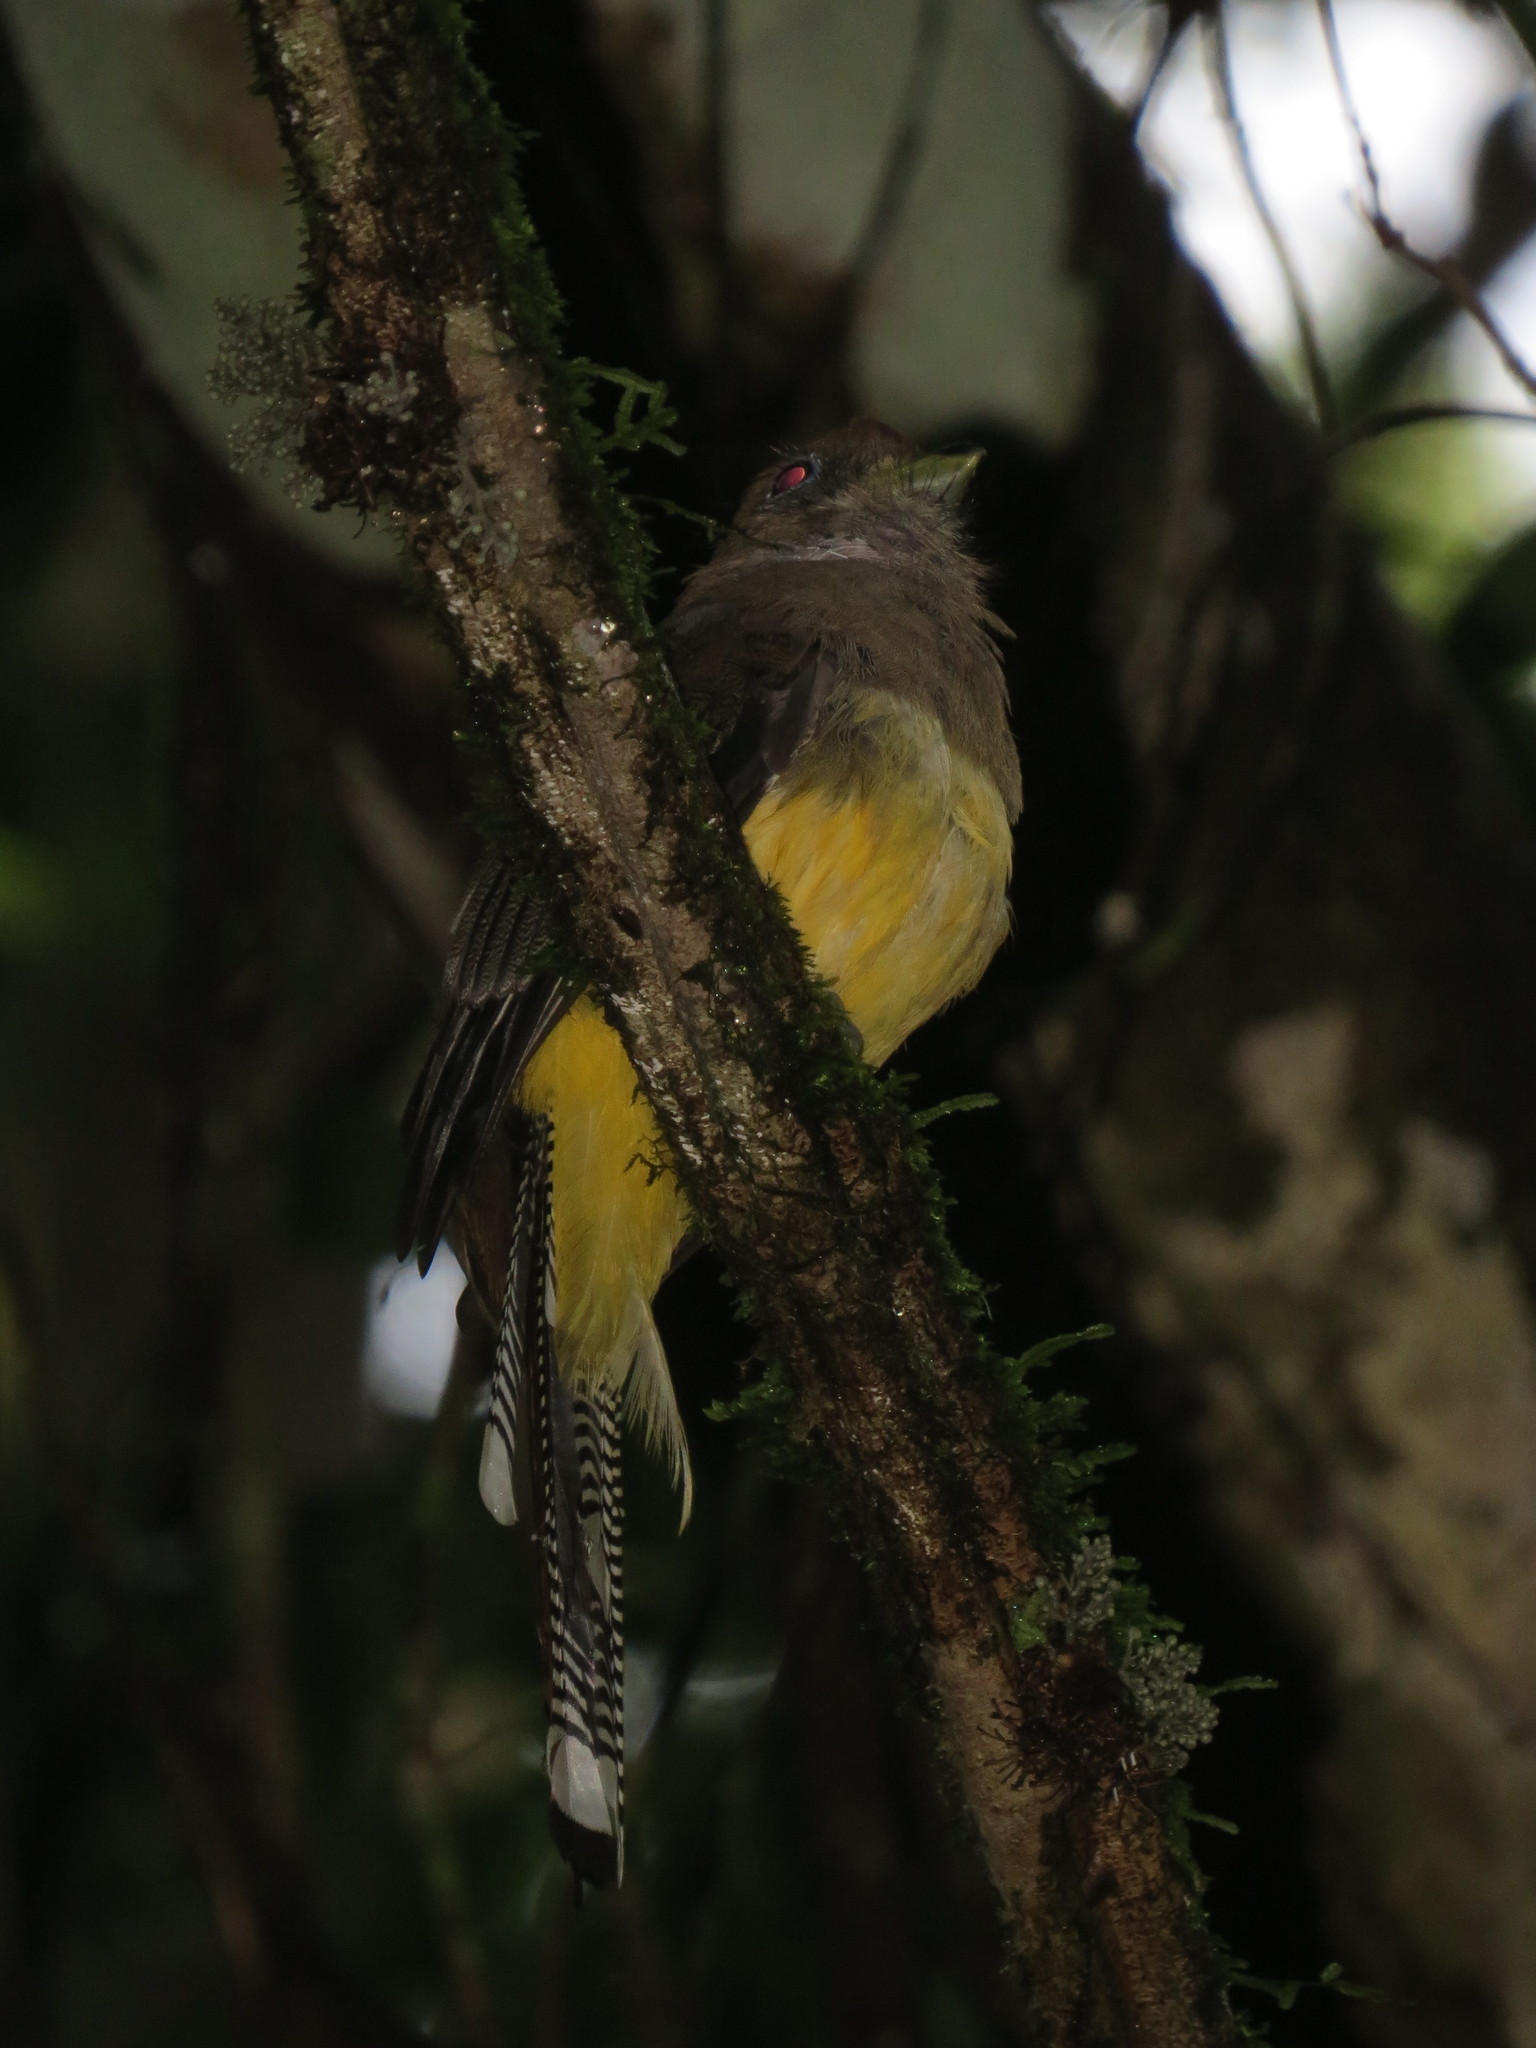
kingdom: Animalia
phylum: Chordata
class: Aves
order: Trogoniformes
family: Trogonidae
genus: Trogon
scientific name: Trogon rufus
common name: Black-throated trogon
